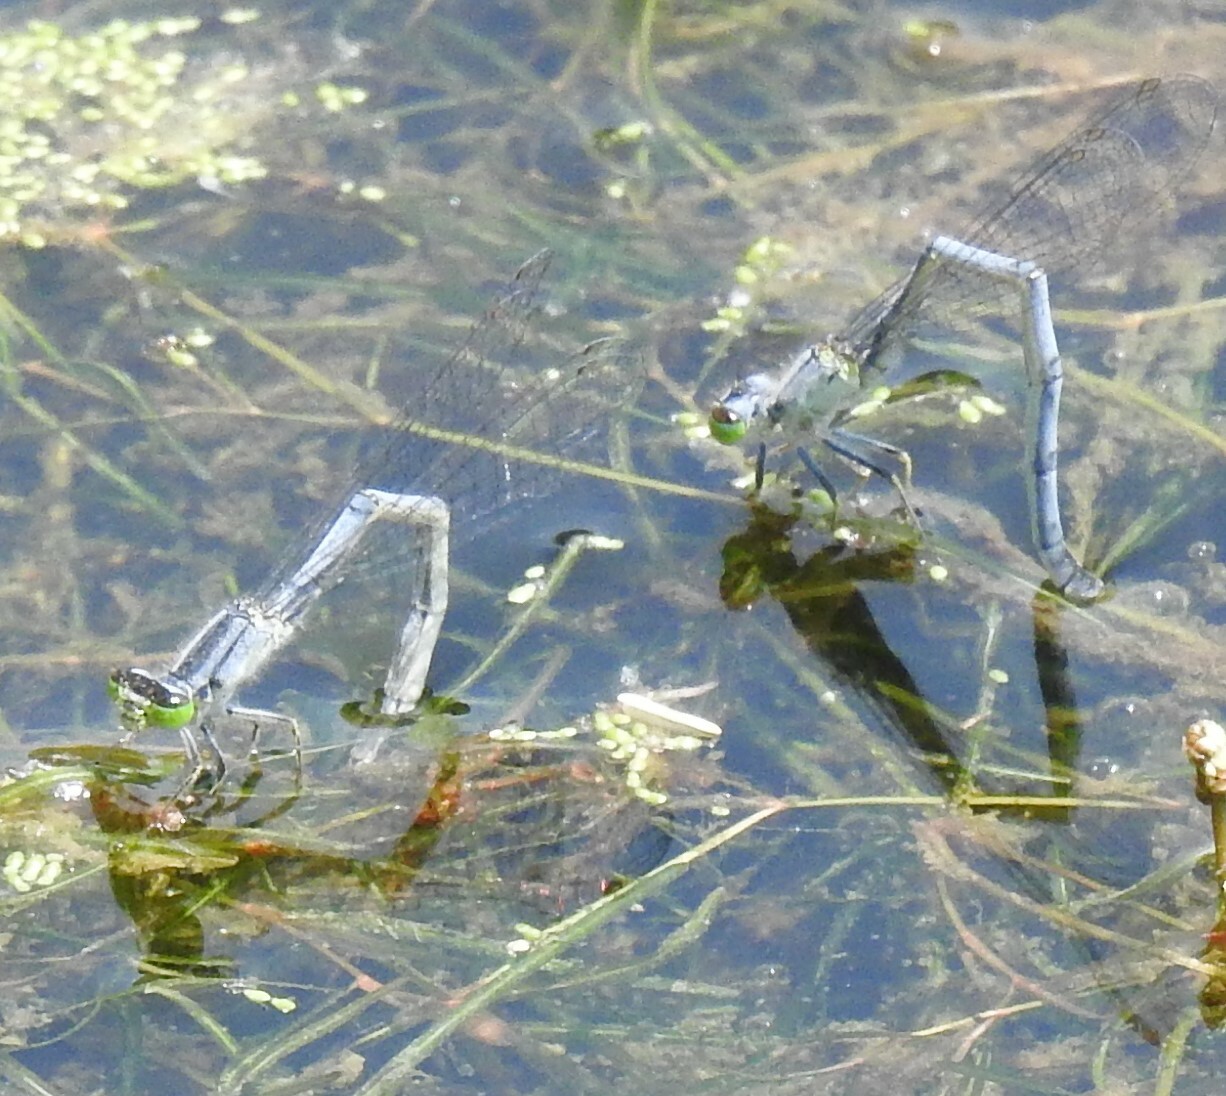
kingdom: Animalia
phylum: Arthropoda
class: Insecta
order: Odonata
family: Coenagrionidae
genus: Ischnura
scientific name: Ischnura verticalis
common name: Eastern forktail
